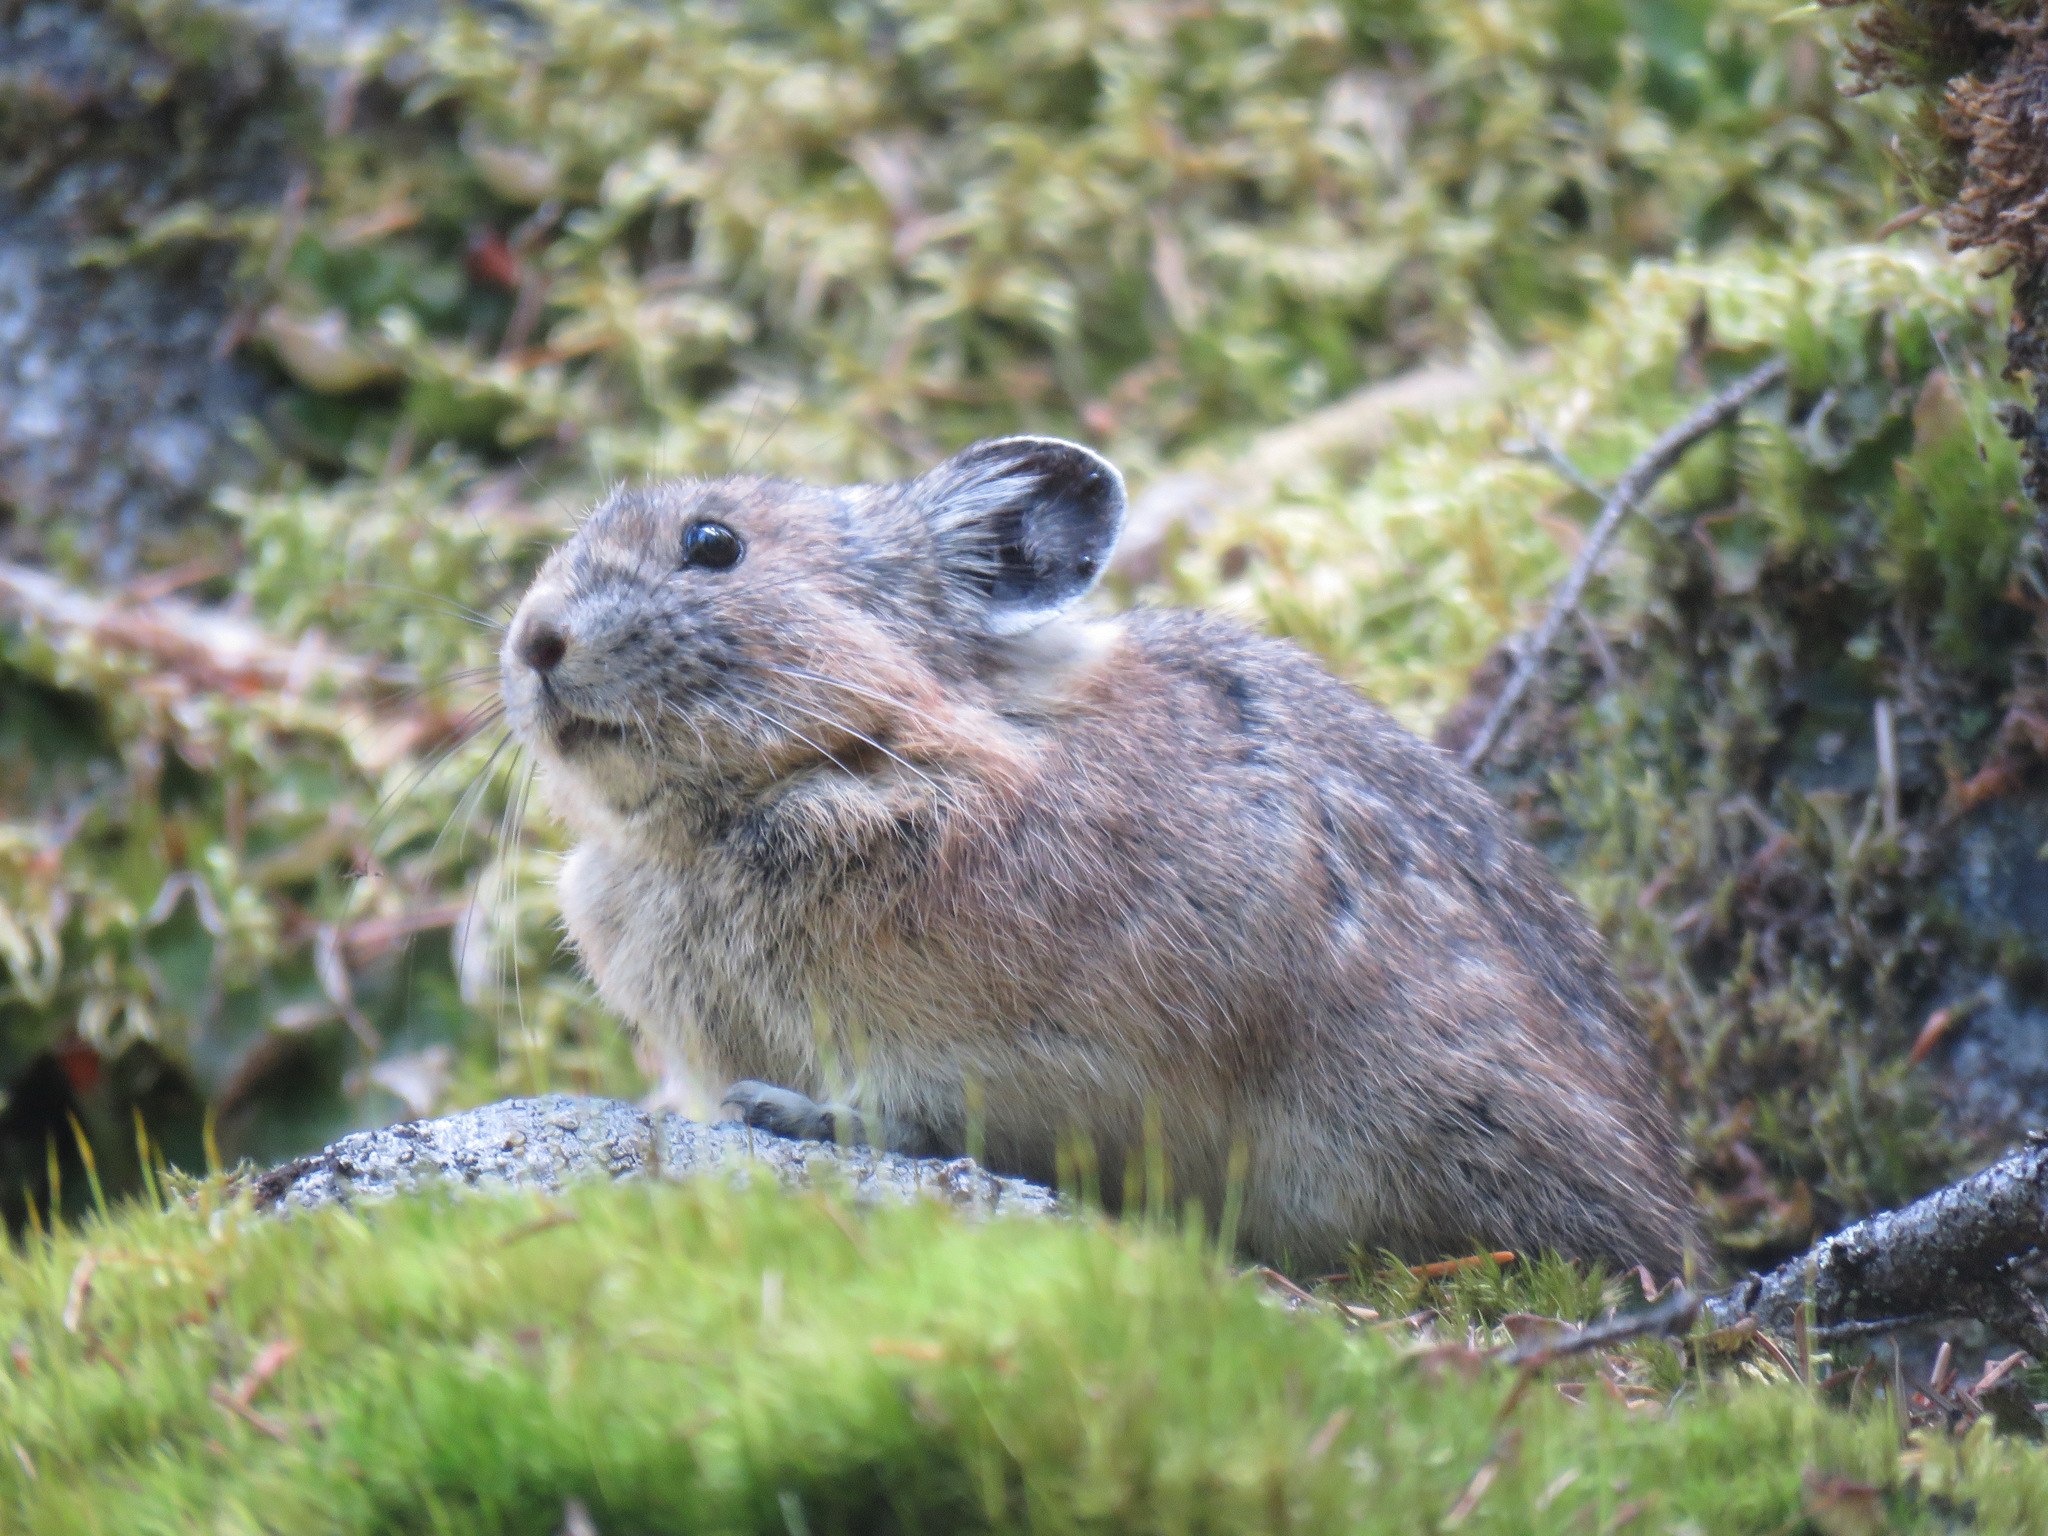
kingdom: Animalia
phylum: Chordata
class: Mammalia
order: Lagomorpha
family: Ochotonidae
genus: Ochotona
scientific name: Ochotona princeps
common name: American pika
